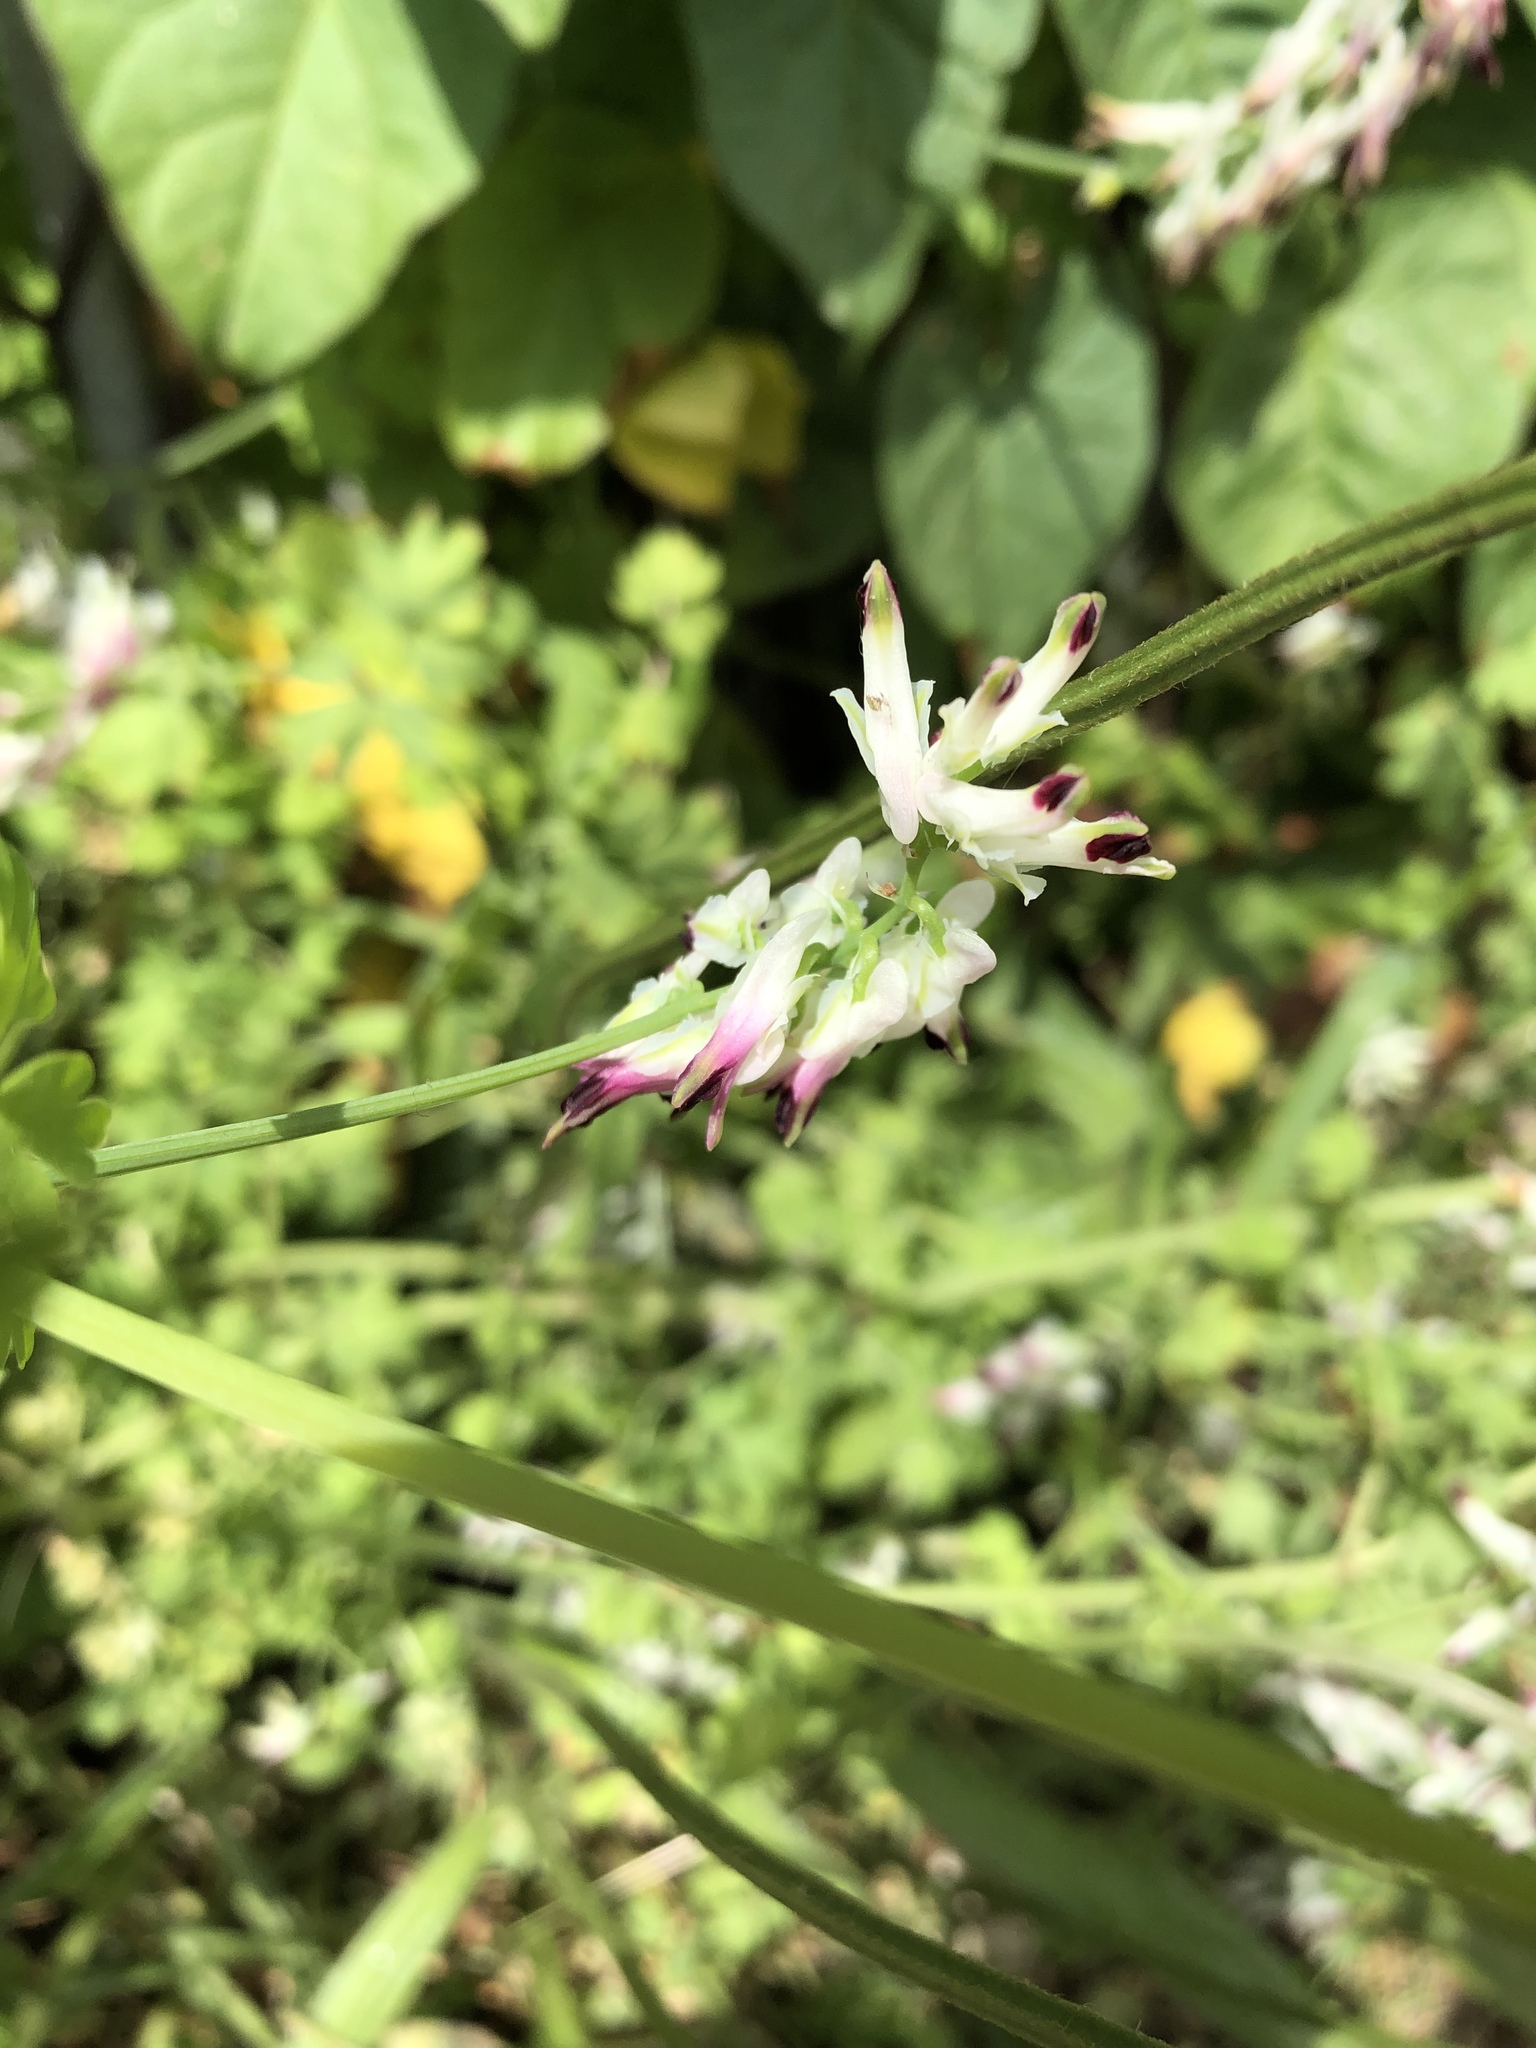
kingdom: Plantae
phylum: Tracheophyta
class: Magnoliopsida
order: Ranunculales
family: Papaveraceae
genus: Fumaria
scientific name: Fumaria capreolata
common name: White ramping-fumitory
